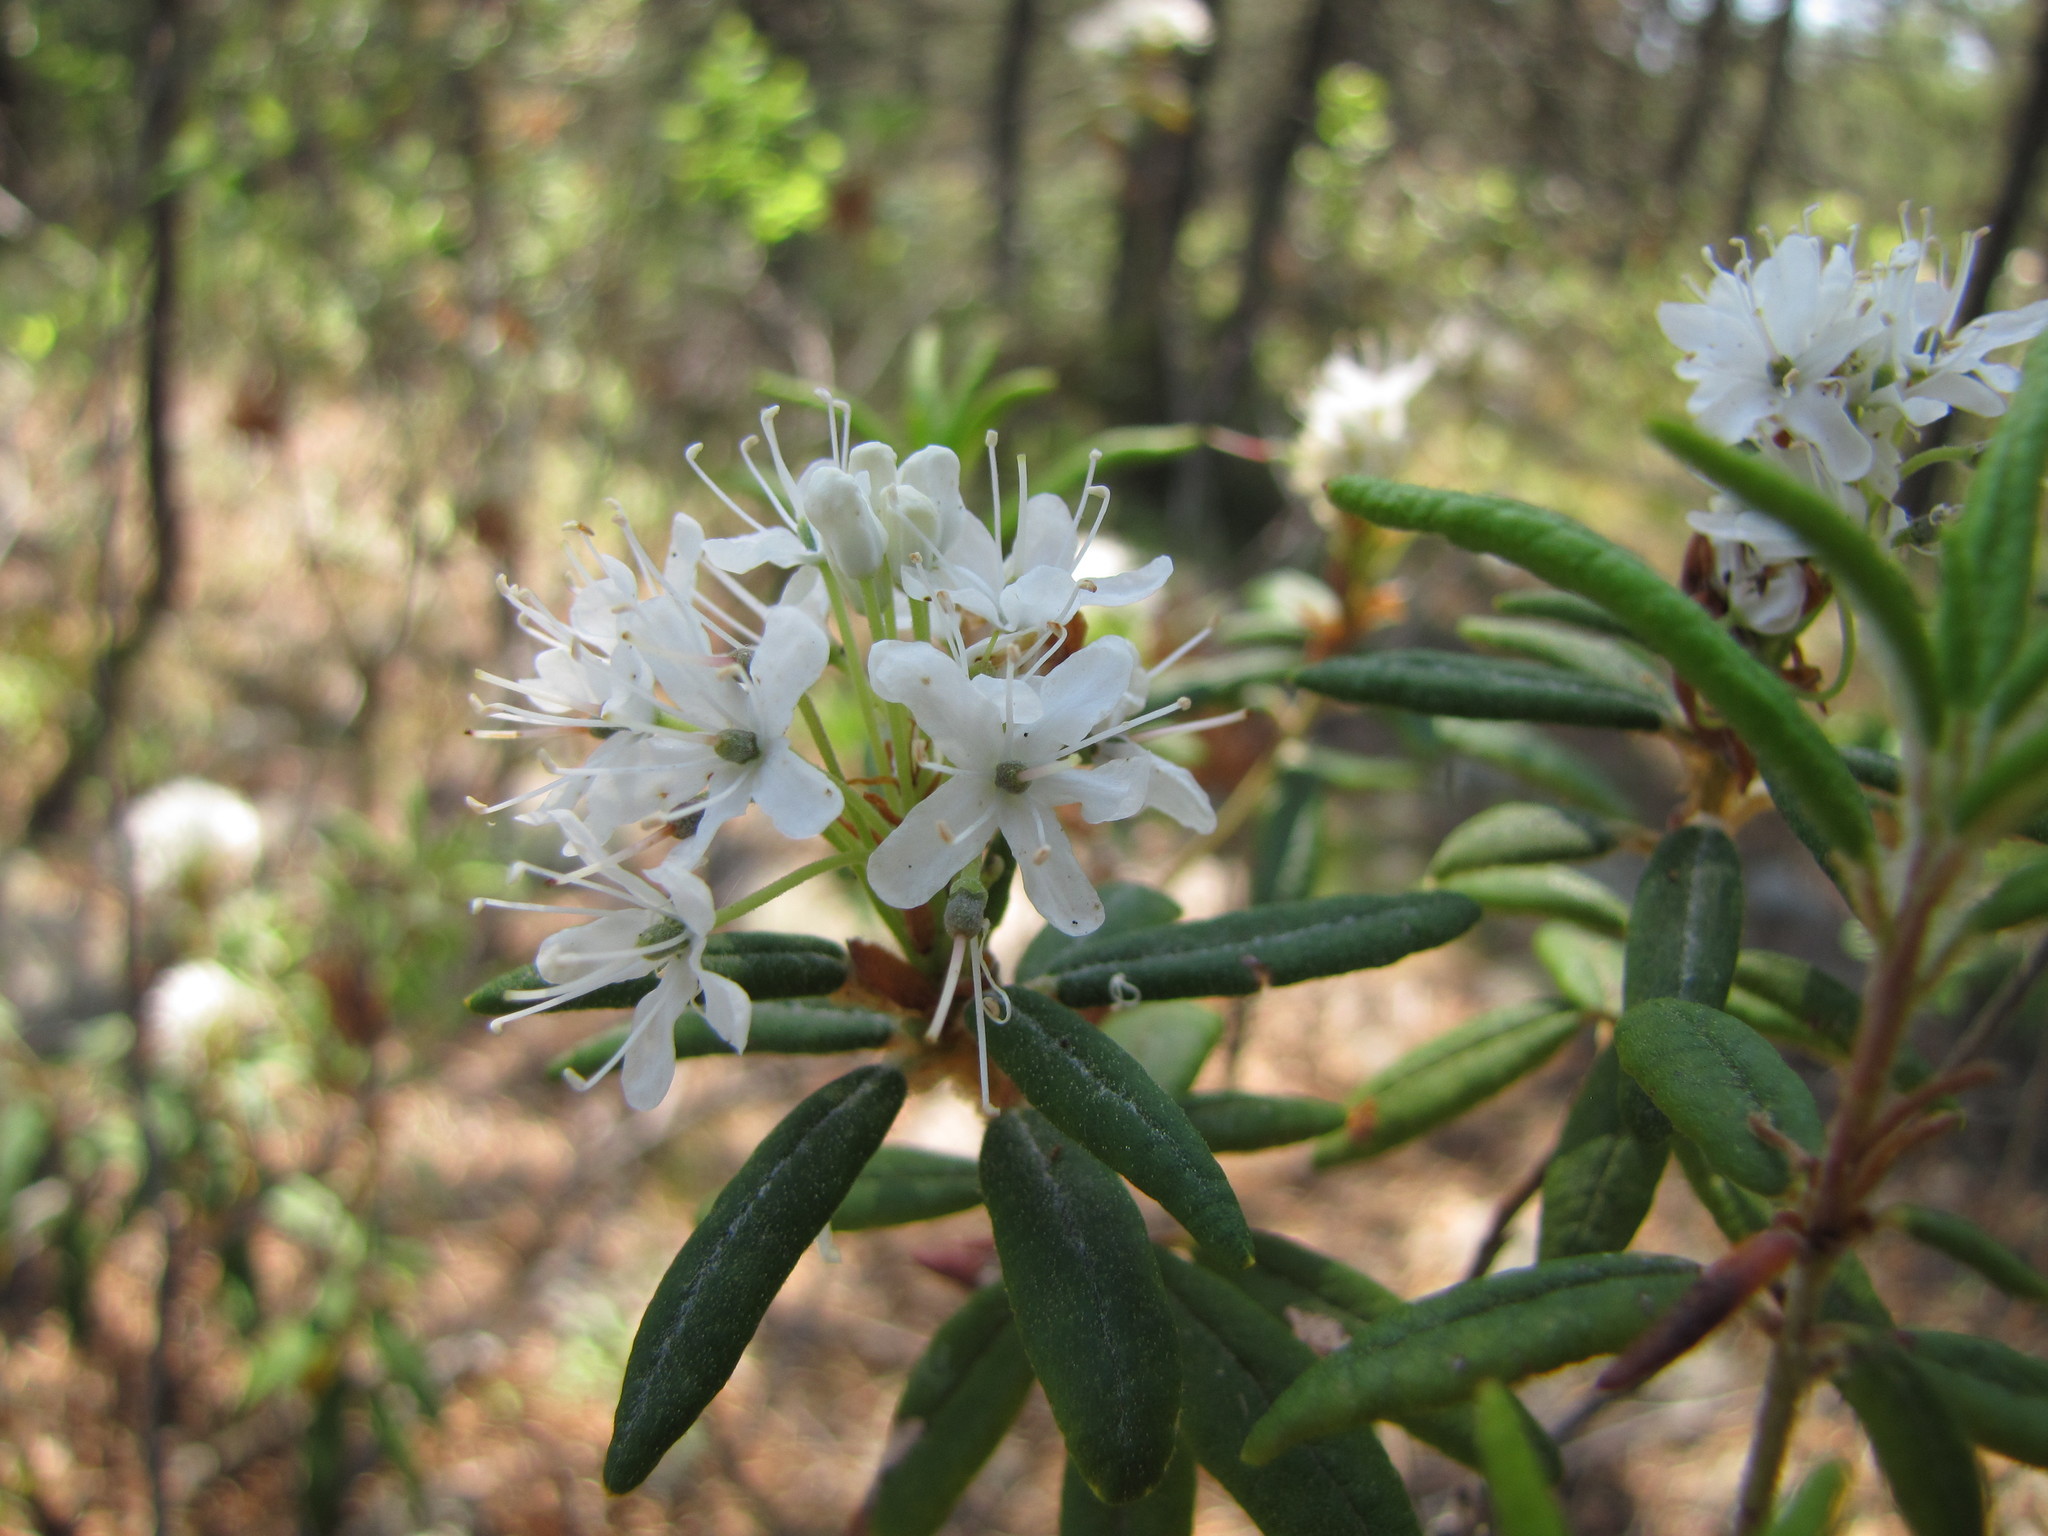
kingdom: Plantae
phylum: Tracheophyta
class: Magnoliopsida
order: Ericales
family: Ericaceae
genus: Rhododendron
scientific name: Rhododendron groenlandicum
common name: Bog labrador tea
